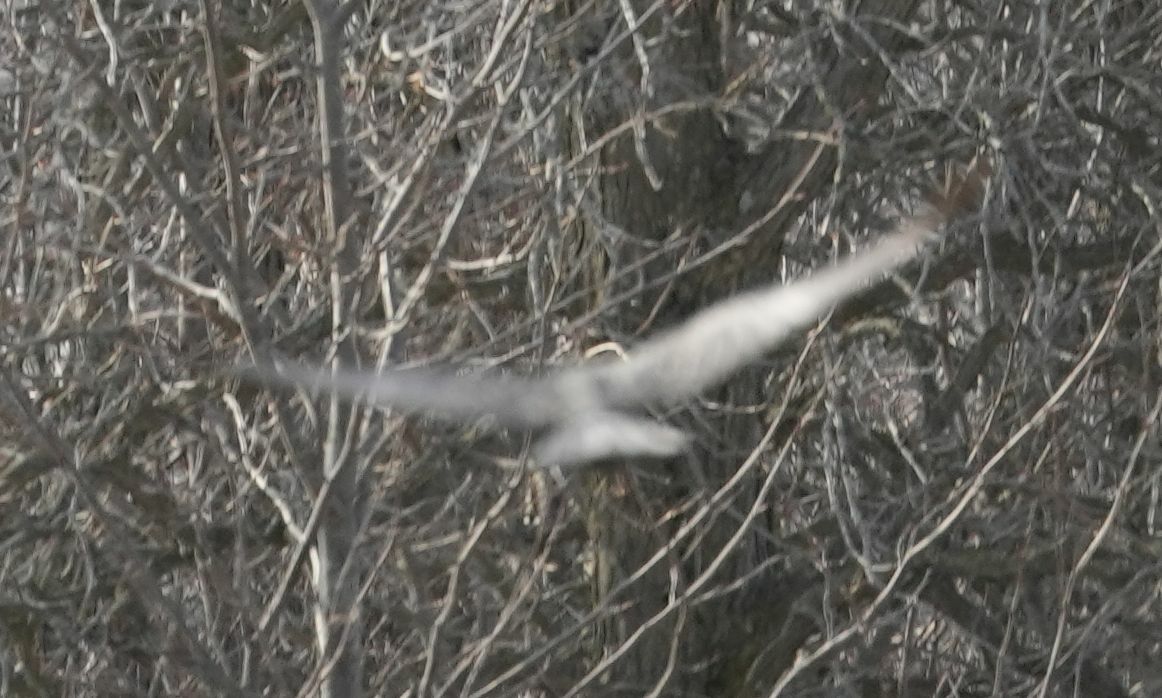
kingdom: Animalia
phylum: Chordata
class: Aves
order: Accipitriformes
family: Accipitridae
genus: Circus
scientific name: Circus cyaneus
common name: Hen harrier
